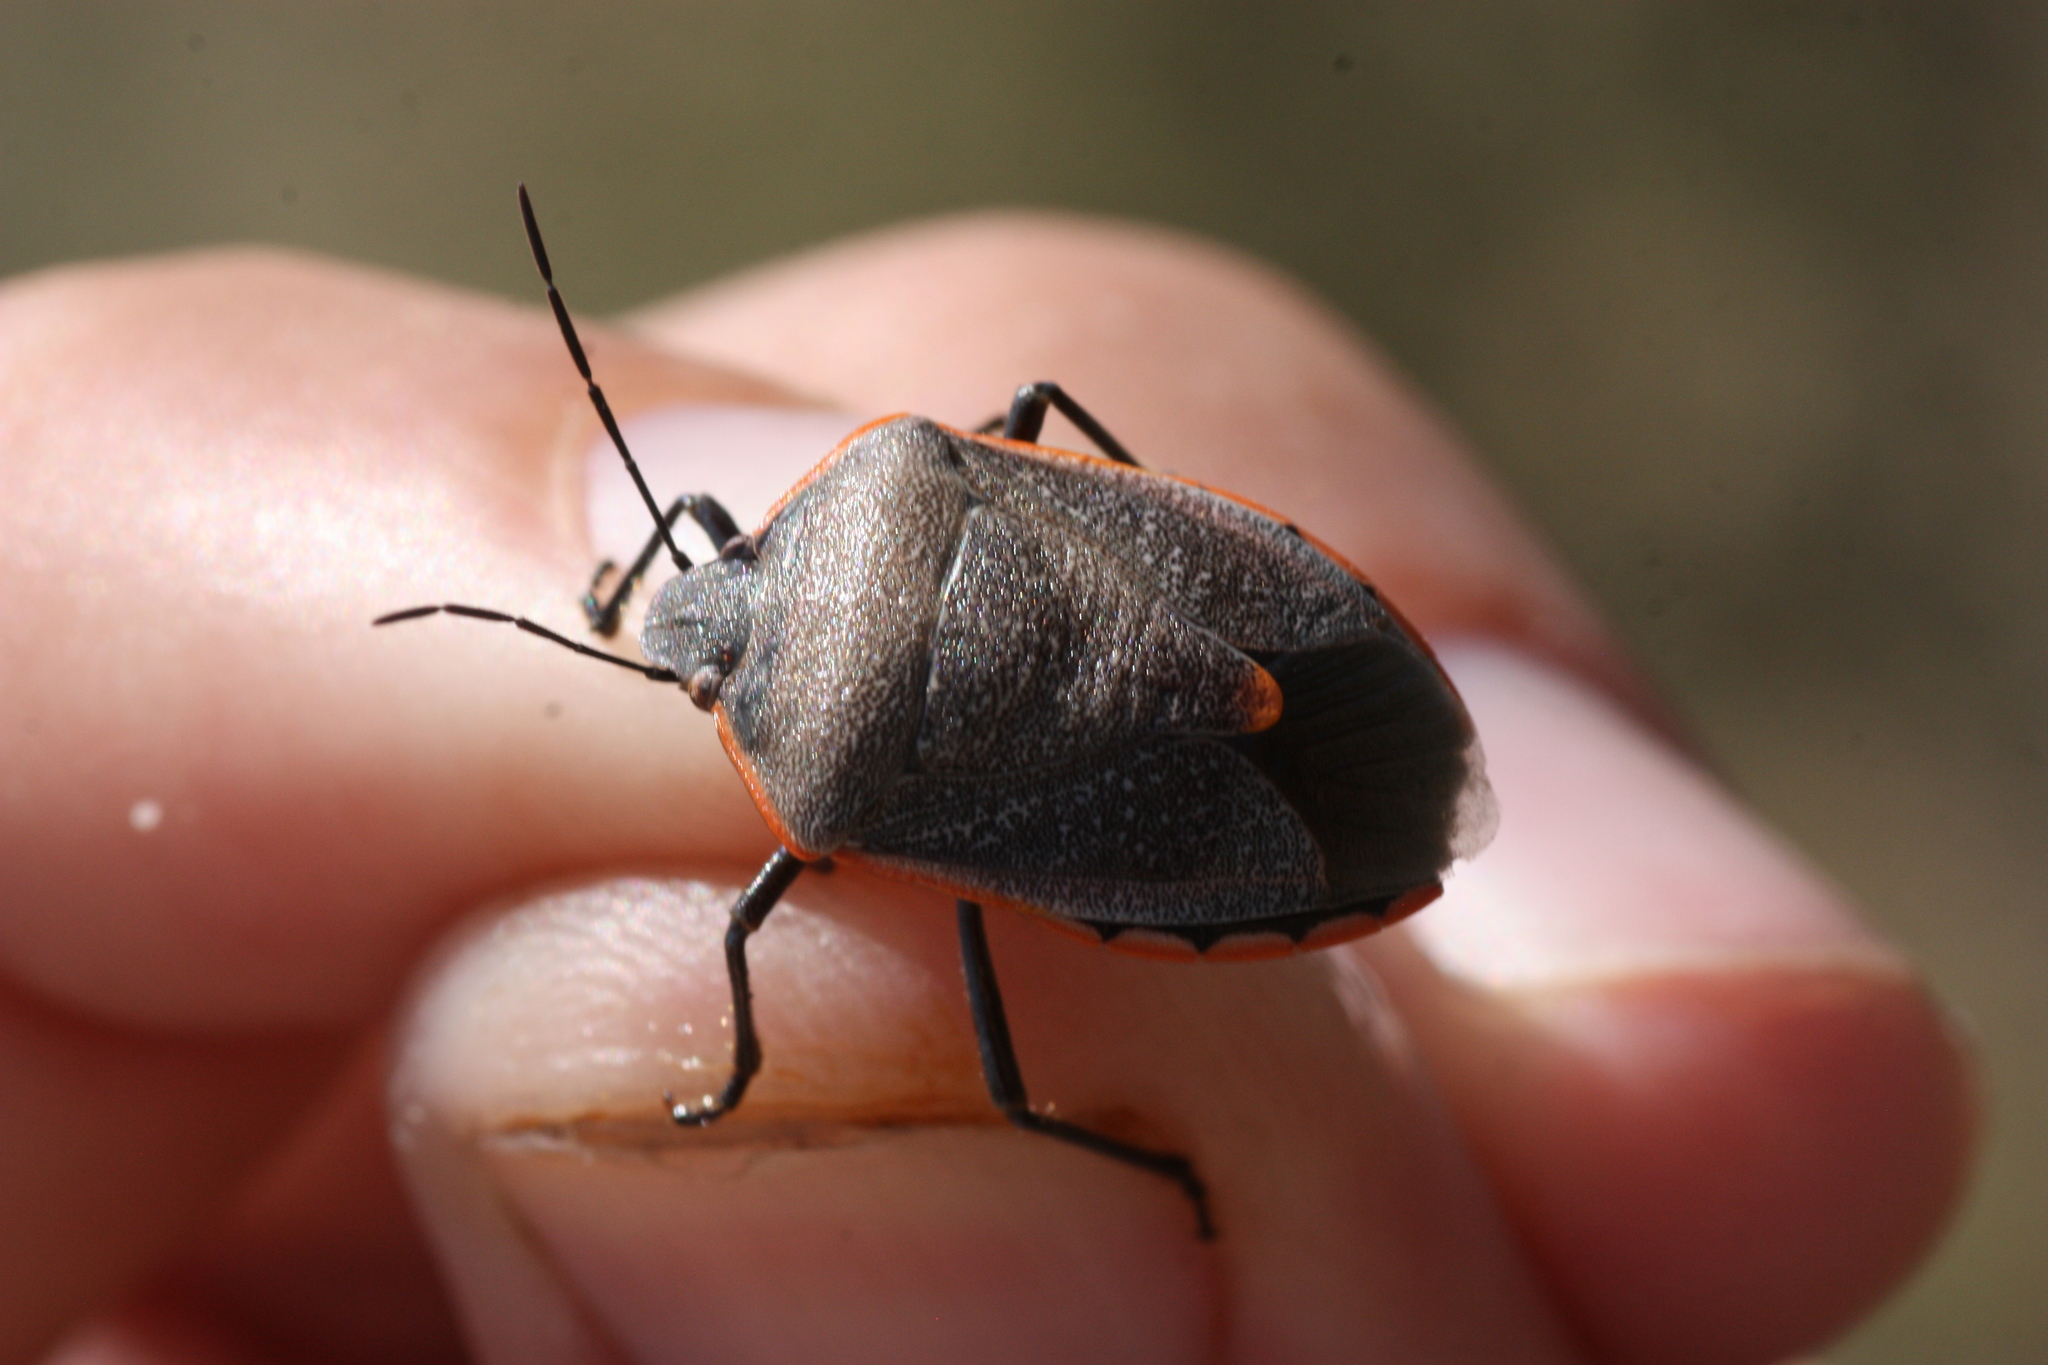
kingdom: Animalia
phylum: Arthropoda
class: Insecta
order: Hemiptera
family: Pentatomidae
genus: Chlorochroa
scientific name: Chlorochroa ligata
